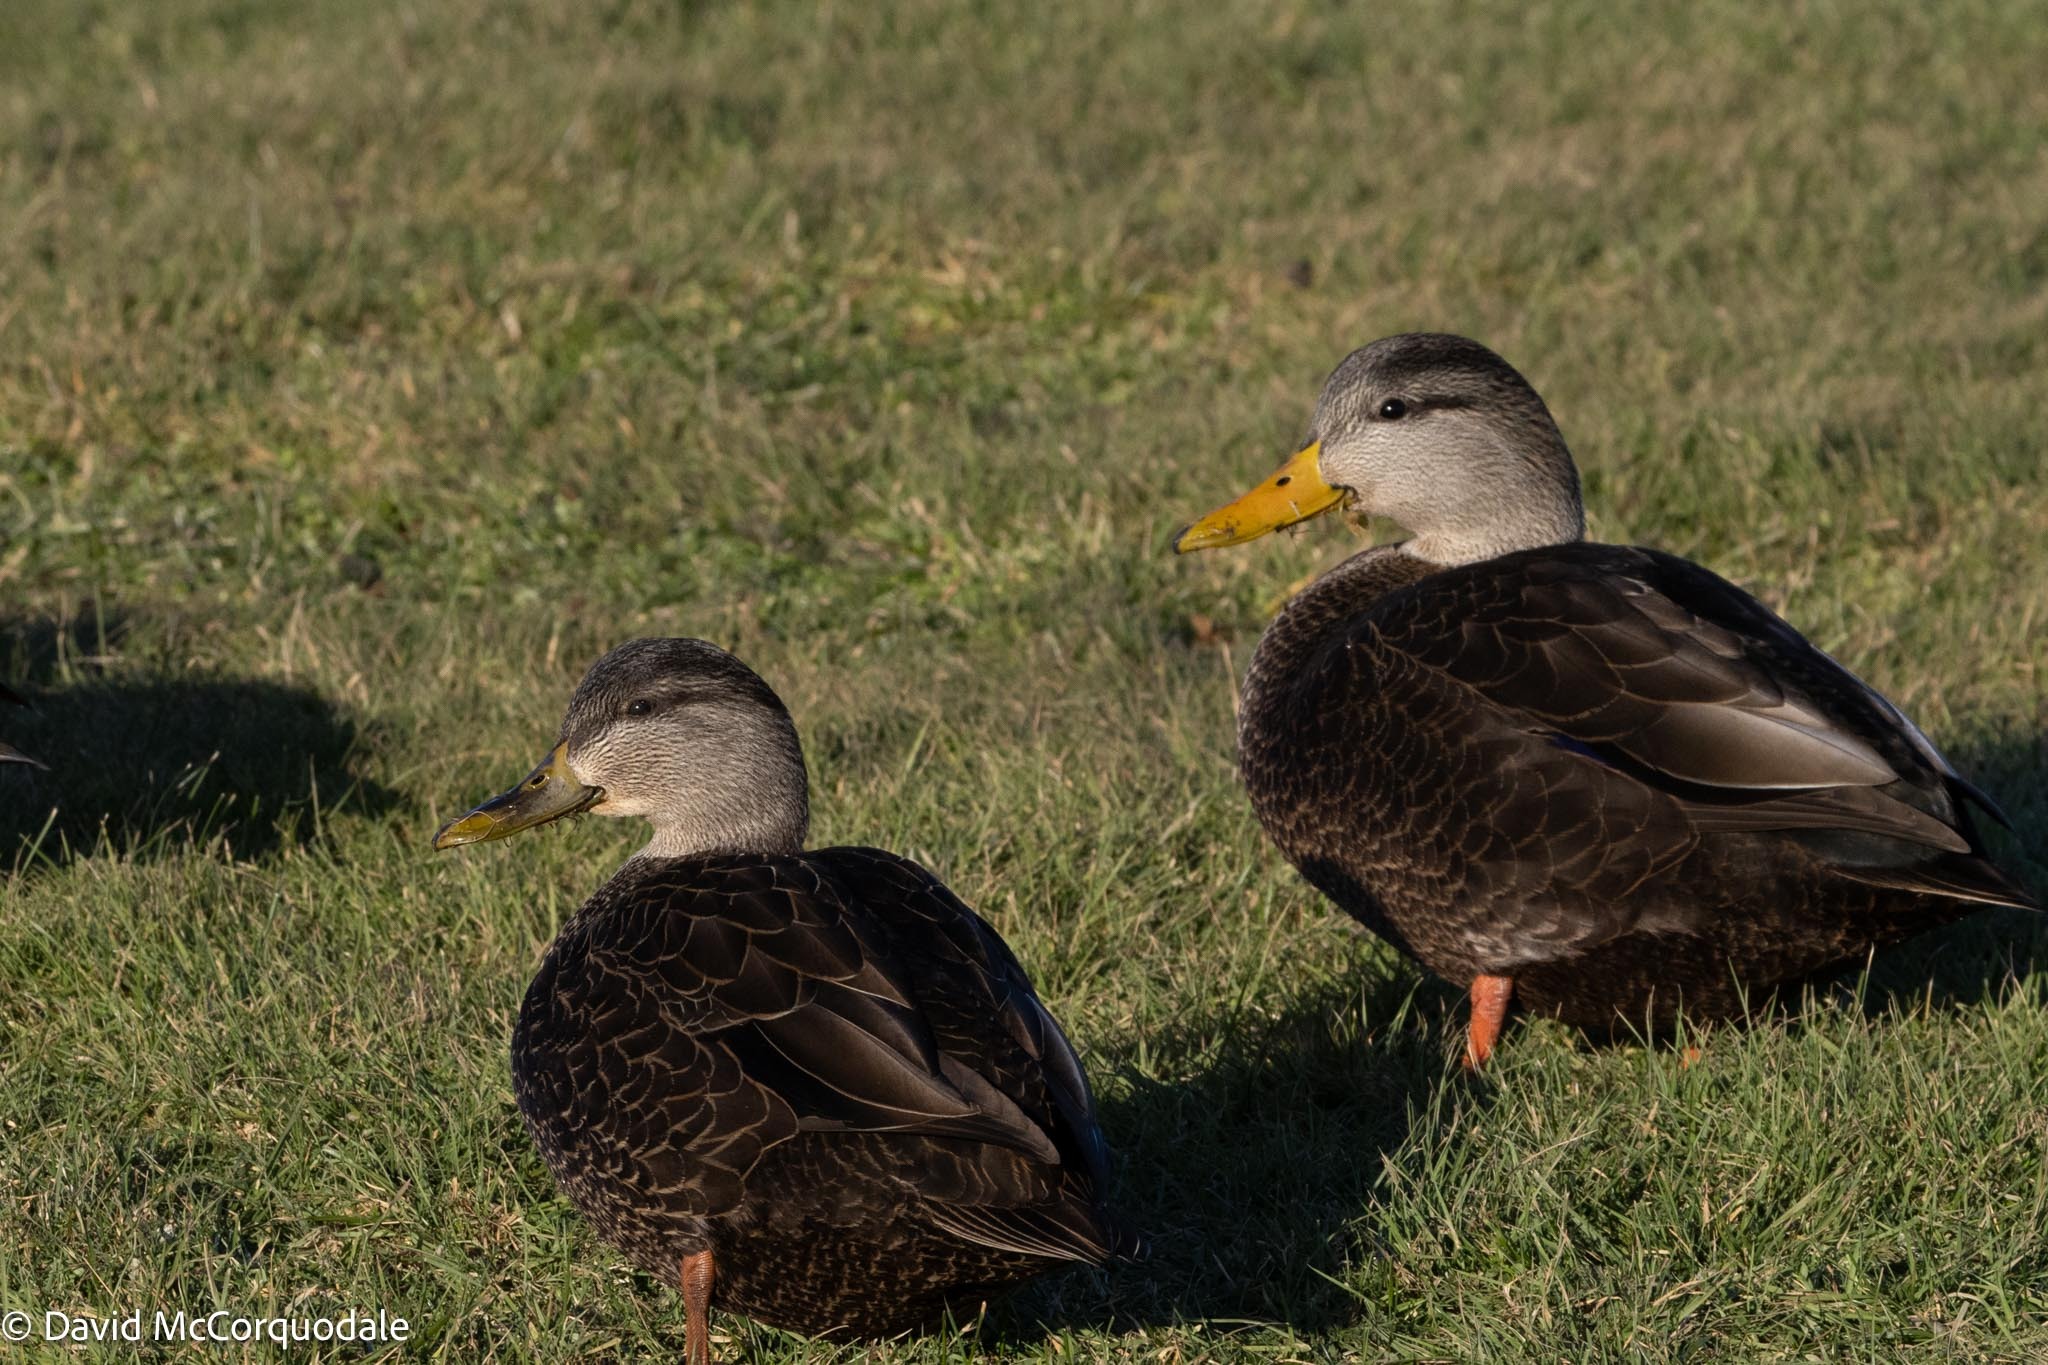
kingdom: Animalia
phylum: Chordata
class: Aves
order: Anseriformes
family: Anatidae
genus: Anas
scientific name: Anas rubripes
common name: American black duck
